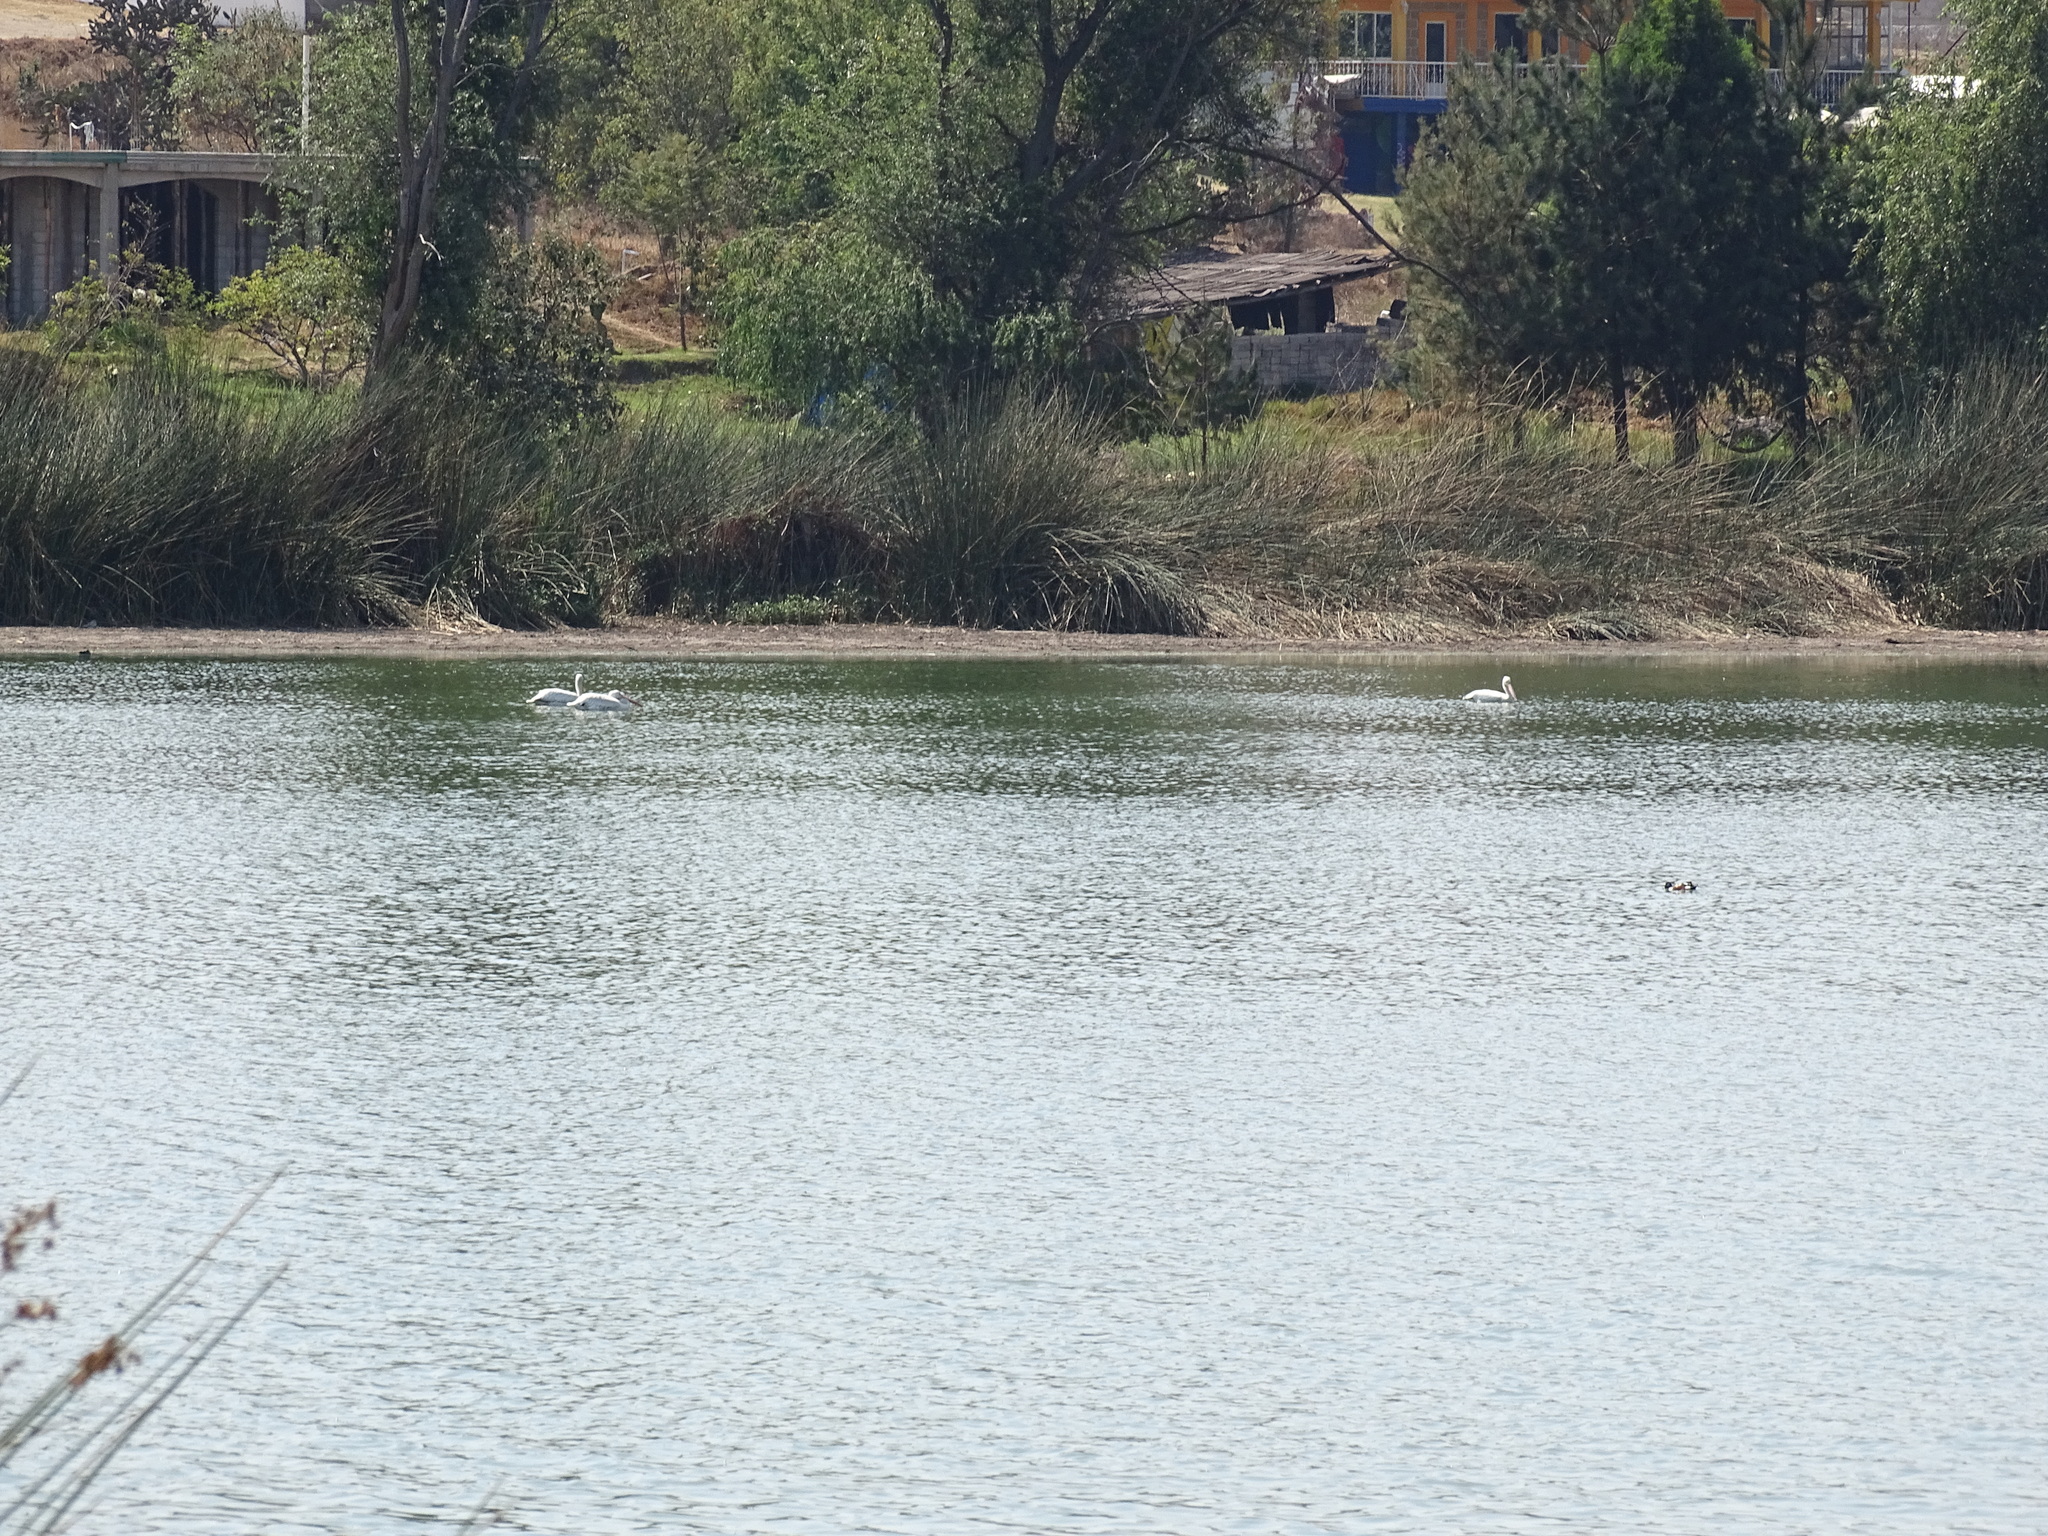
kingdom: Animalia
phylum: Chordata
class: Aves
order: Pelecaniformes
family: Pelecanidae
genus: Pelecanus
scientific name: Pelecanus erythrorhynchos
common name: American white pelican
